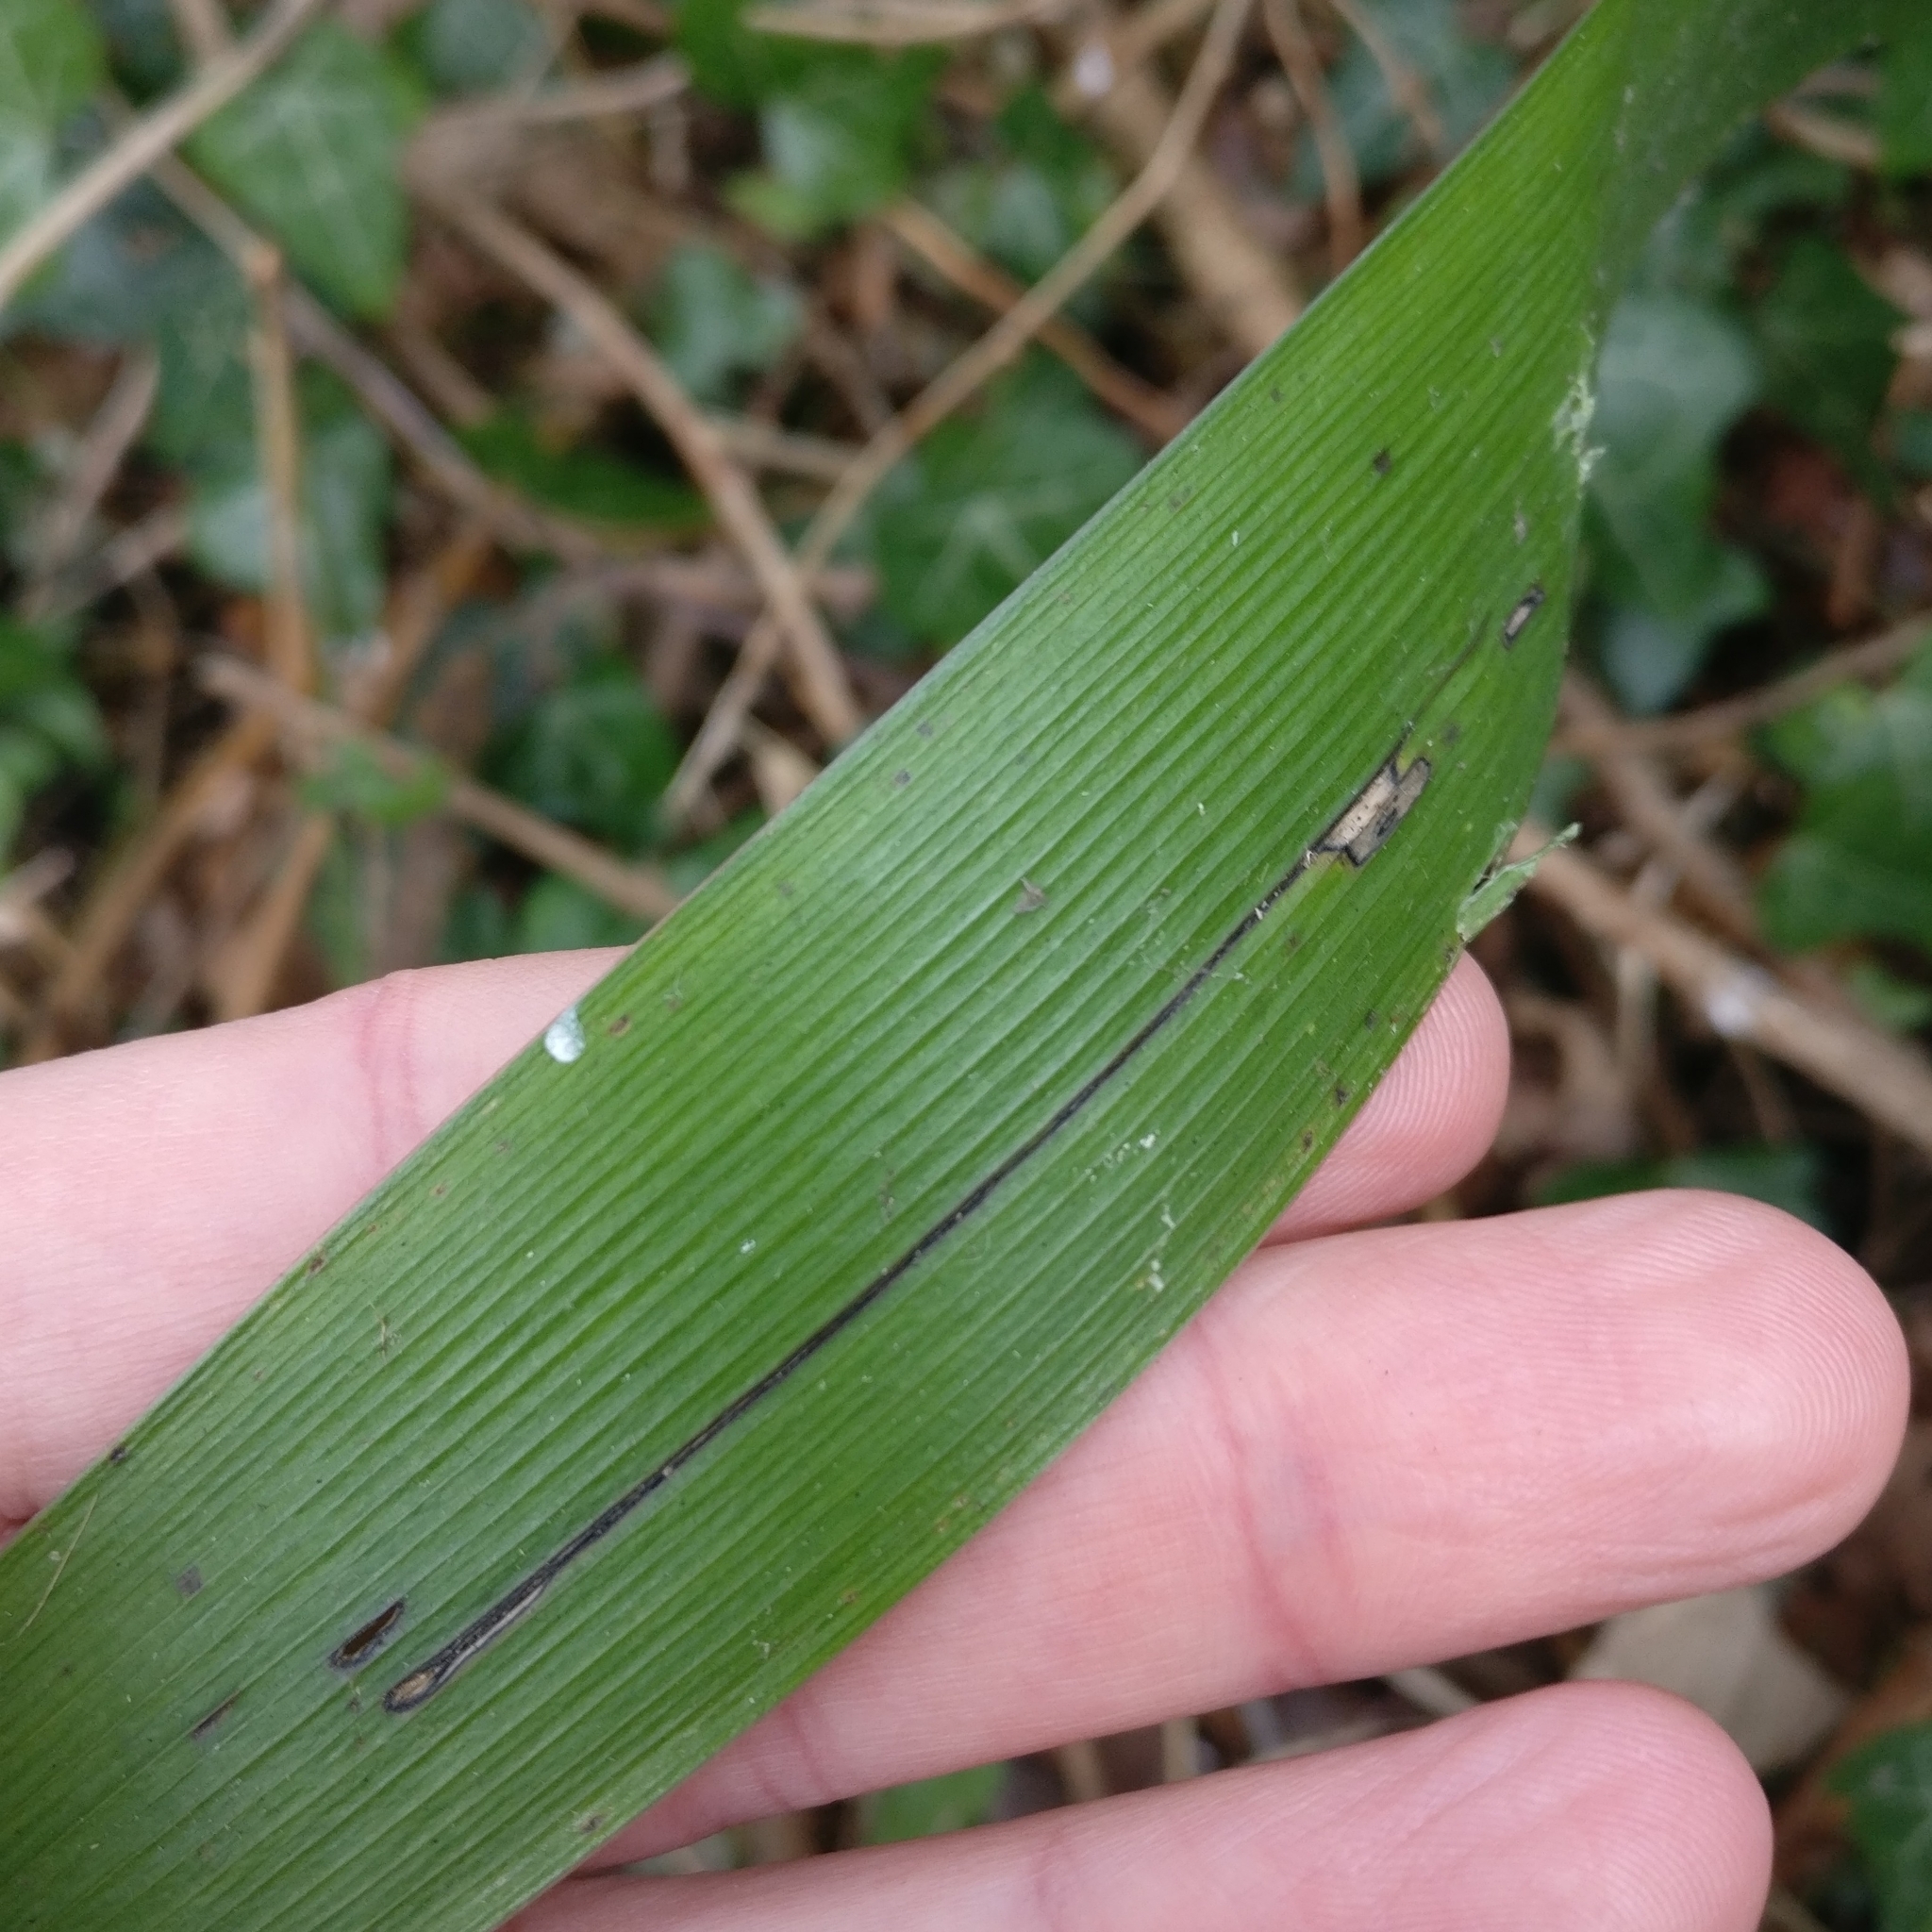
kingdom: Plantae
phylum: Tracheophyta
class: Liliopsida
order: Asparagales
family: Iridaceae
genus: Iris
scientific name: Iris foetidissima
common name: Stinking iris
